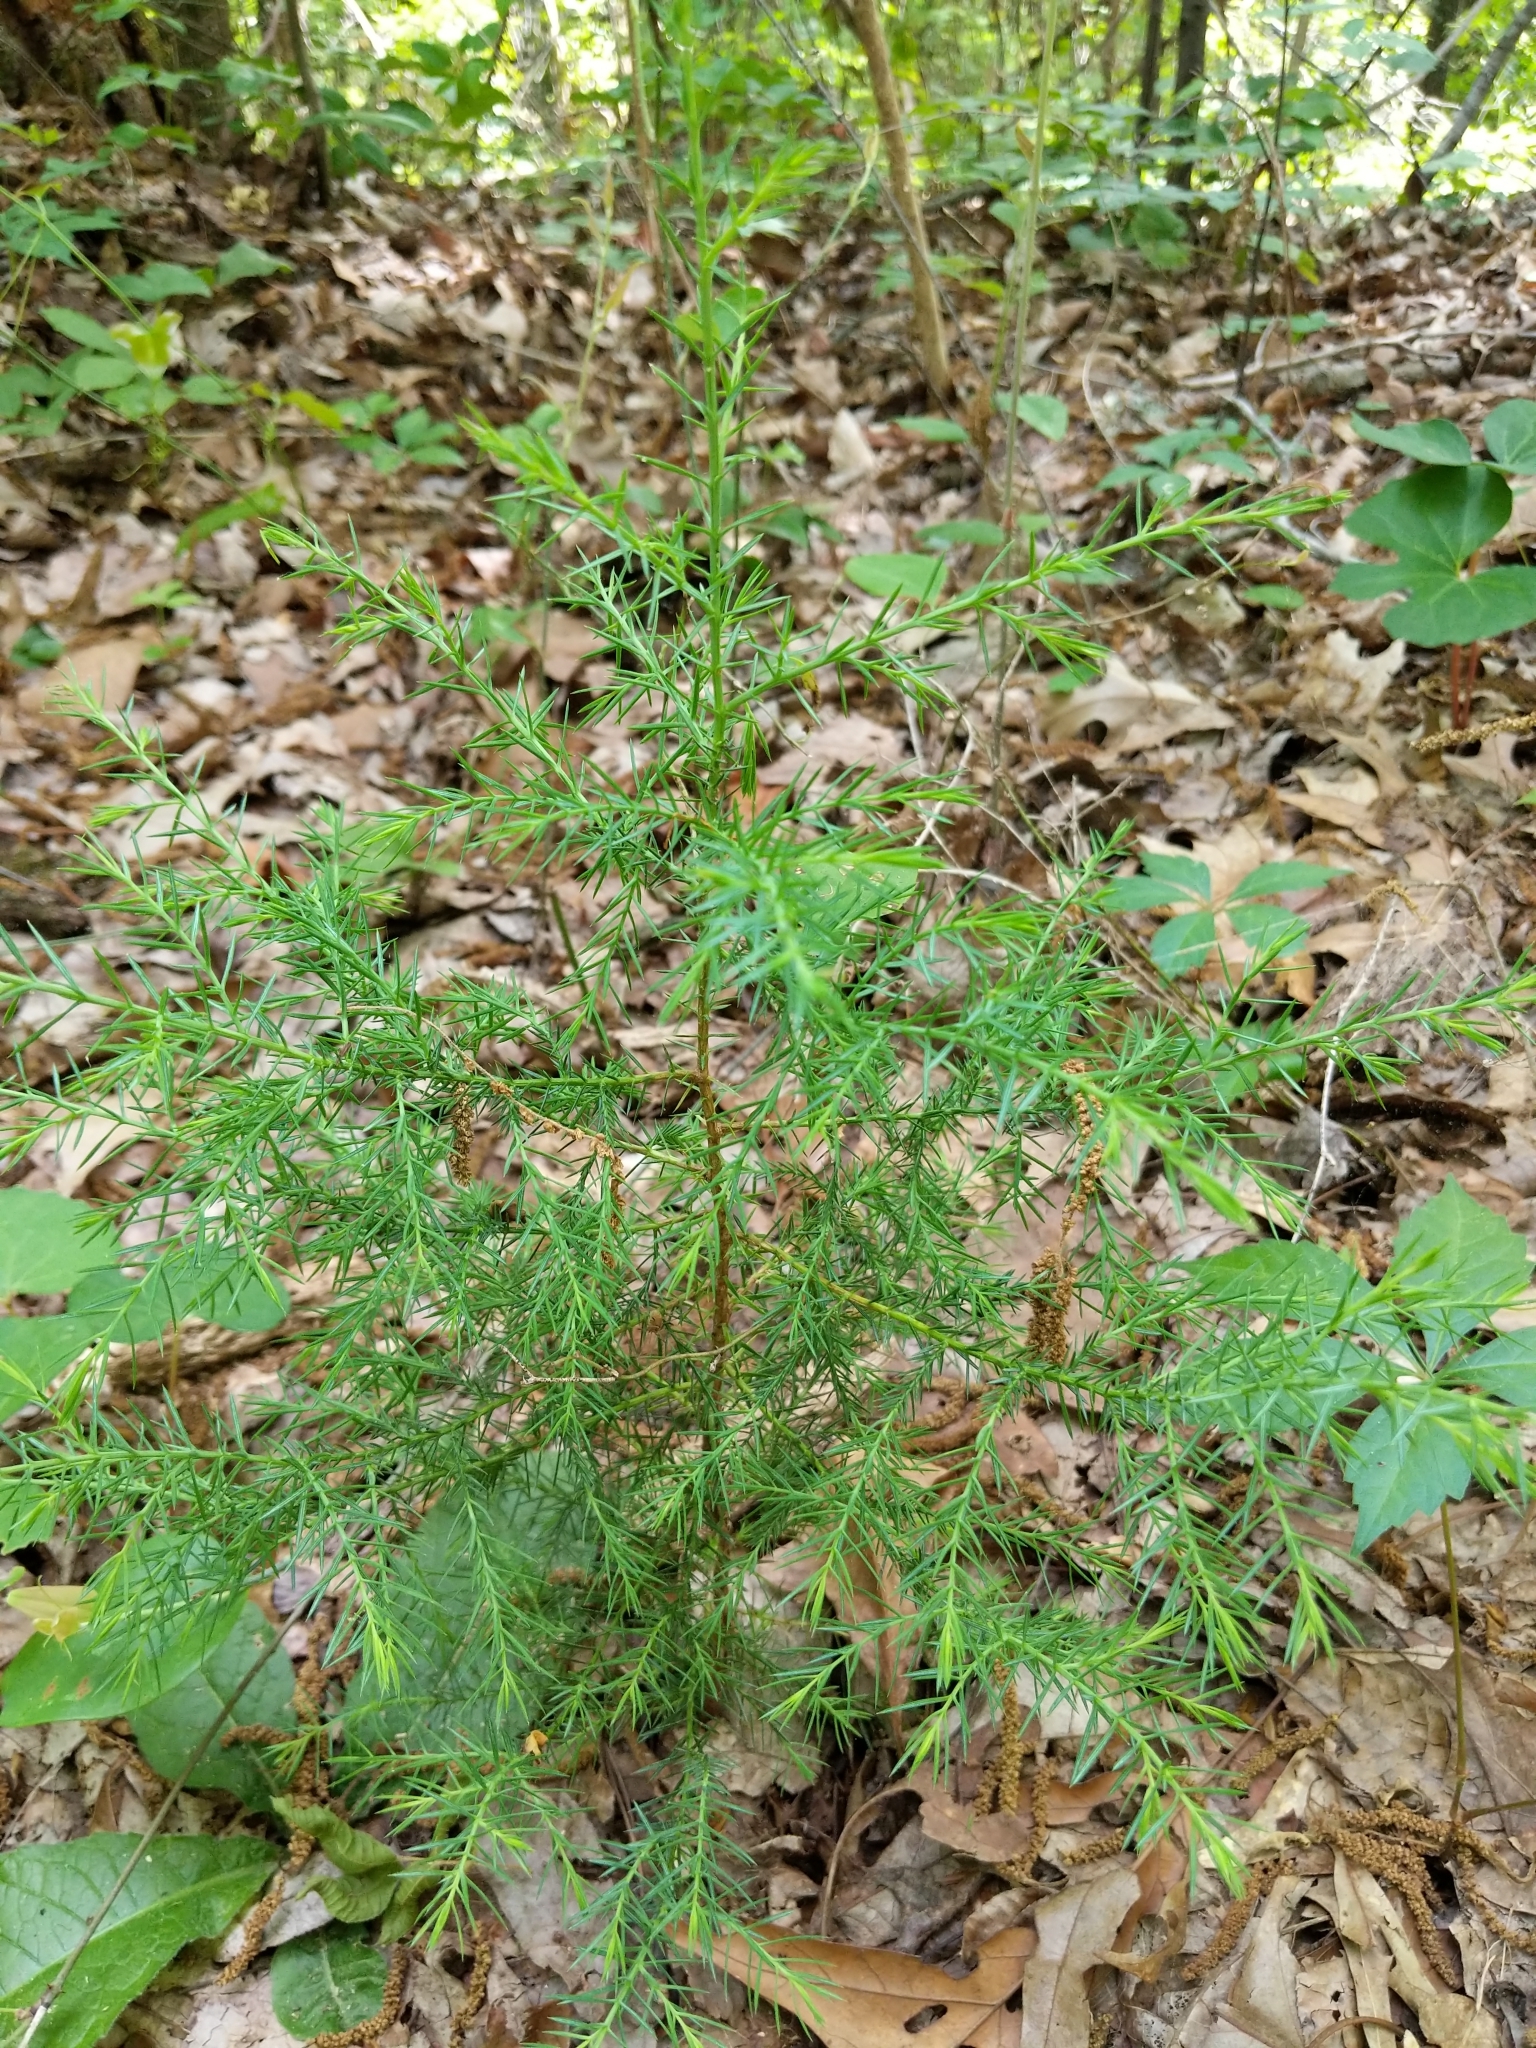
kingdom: Plantae
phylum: Tracheophyta
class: Pinopsida
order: Pinales
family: Cupressaceae
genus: Juniperus
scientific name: Juniperus virginiana
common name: Red juniper
